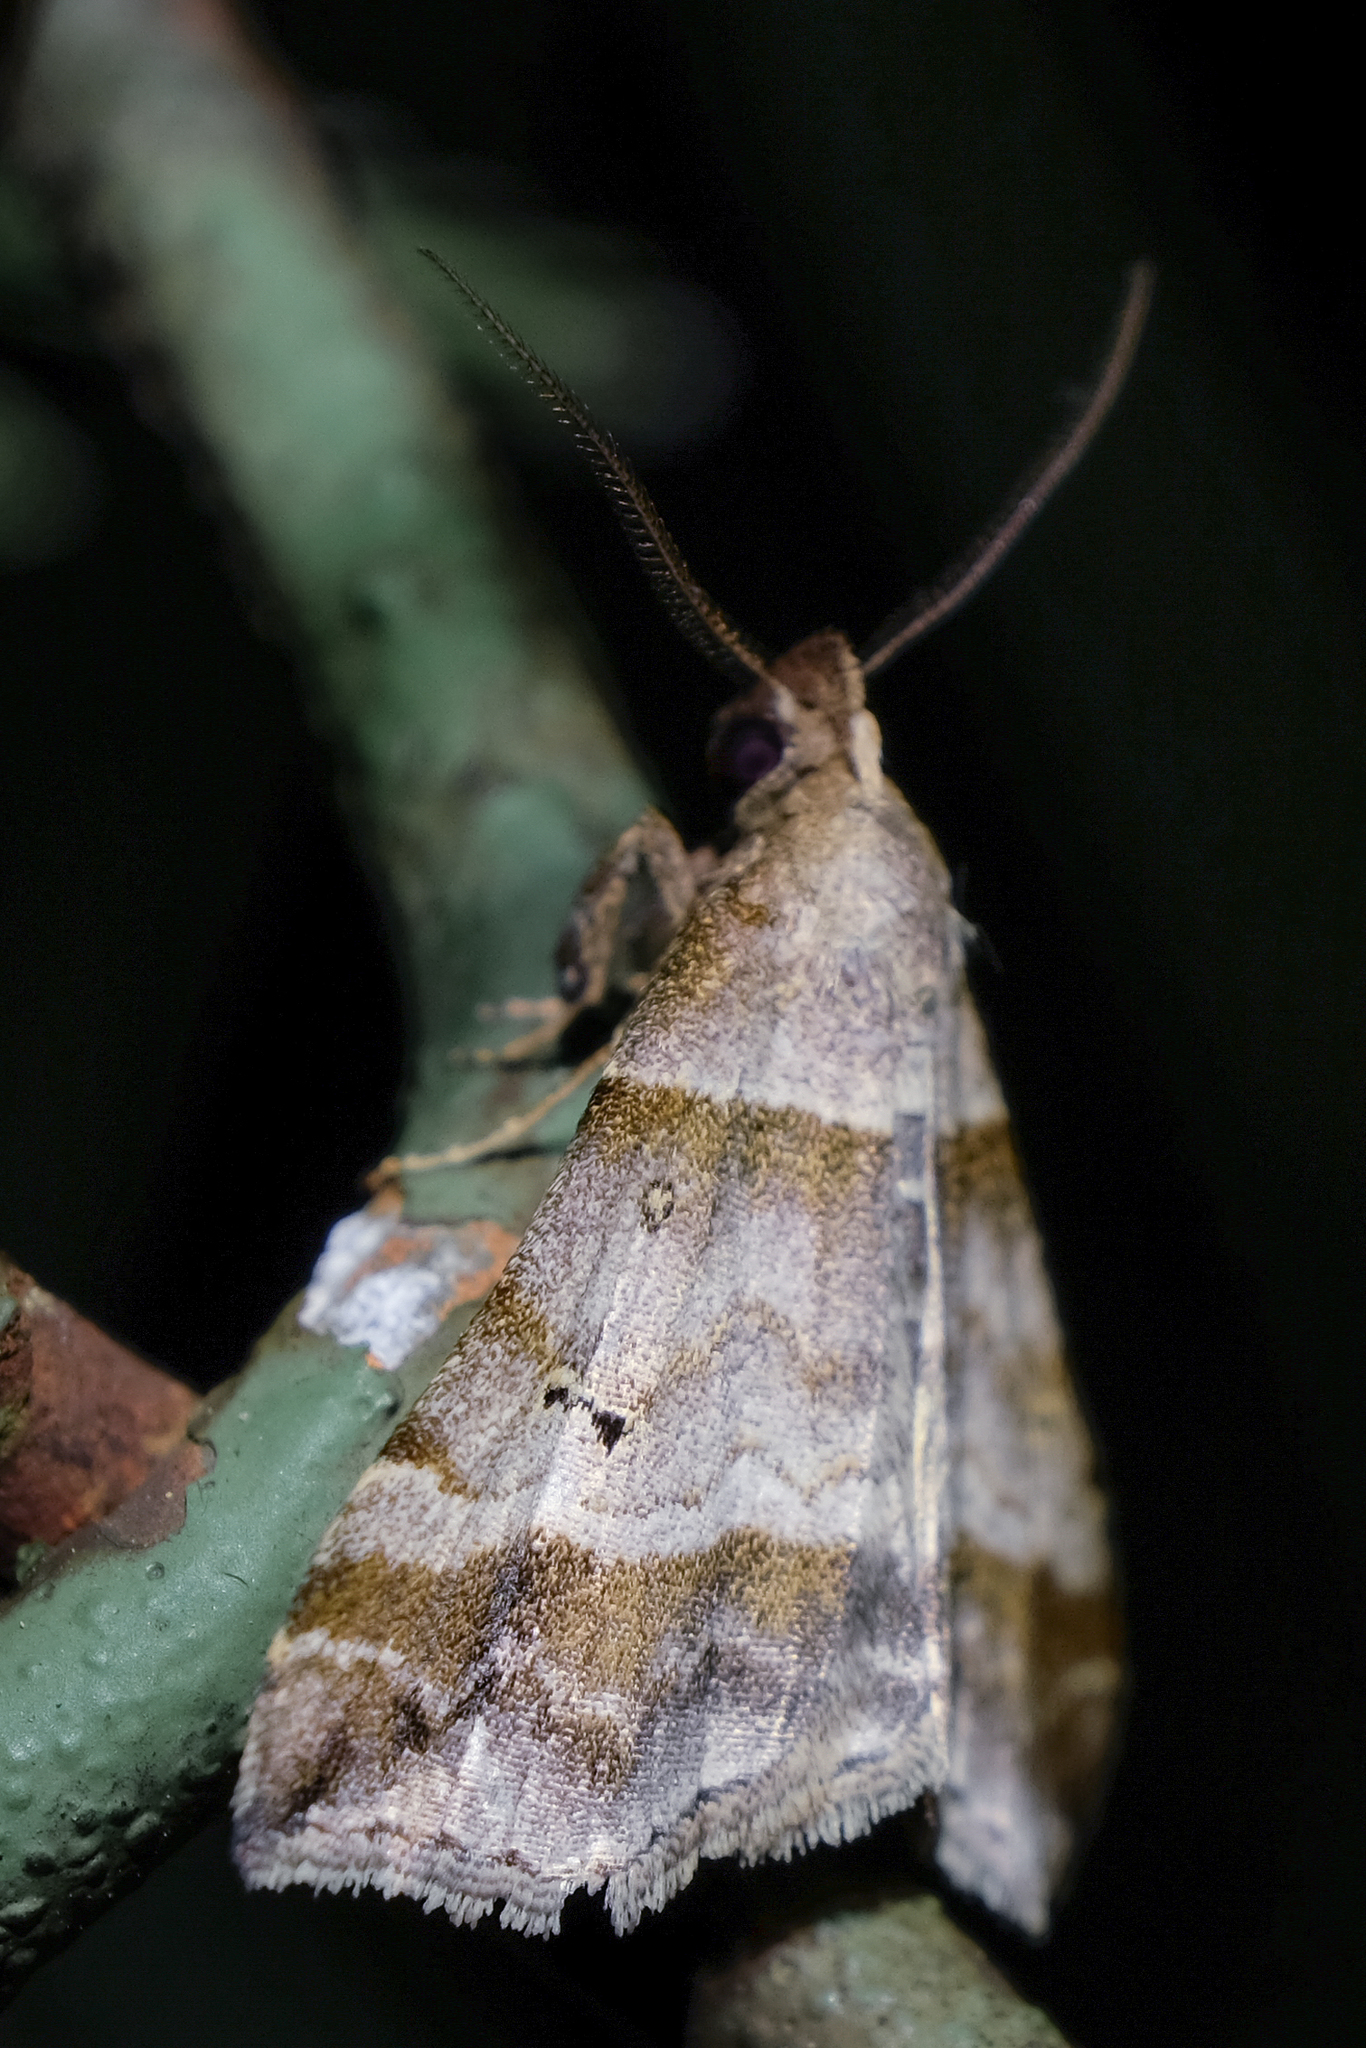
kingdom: Animalia
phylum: Arthropoda
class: Insecta
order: Lepidoptera
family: Erebidae
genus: Phaeolita
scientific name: Phaeolita pyramusalis
